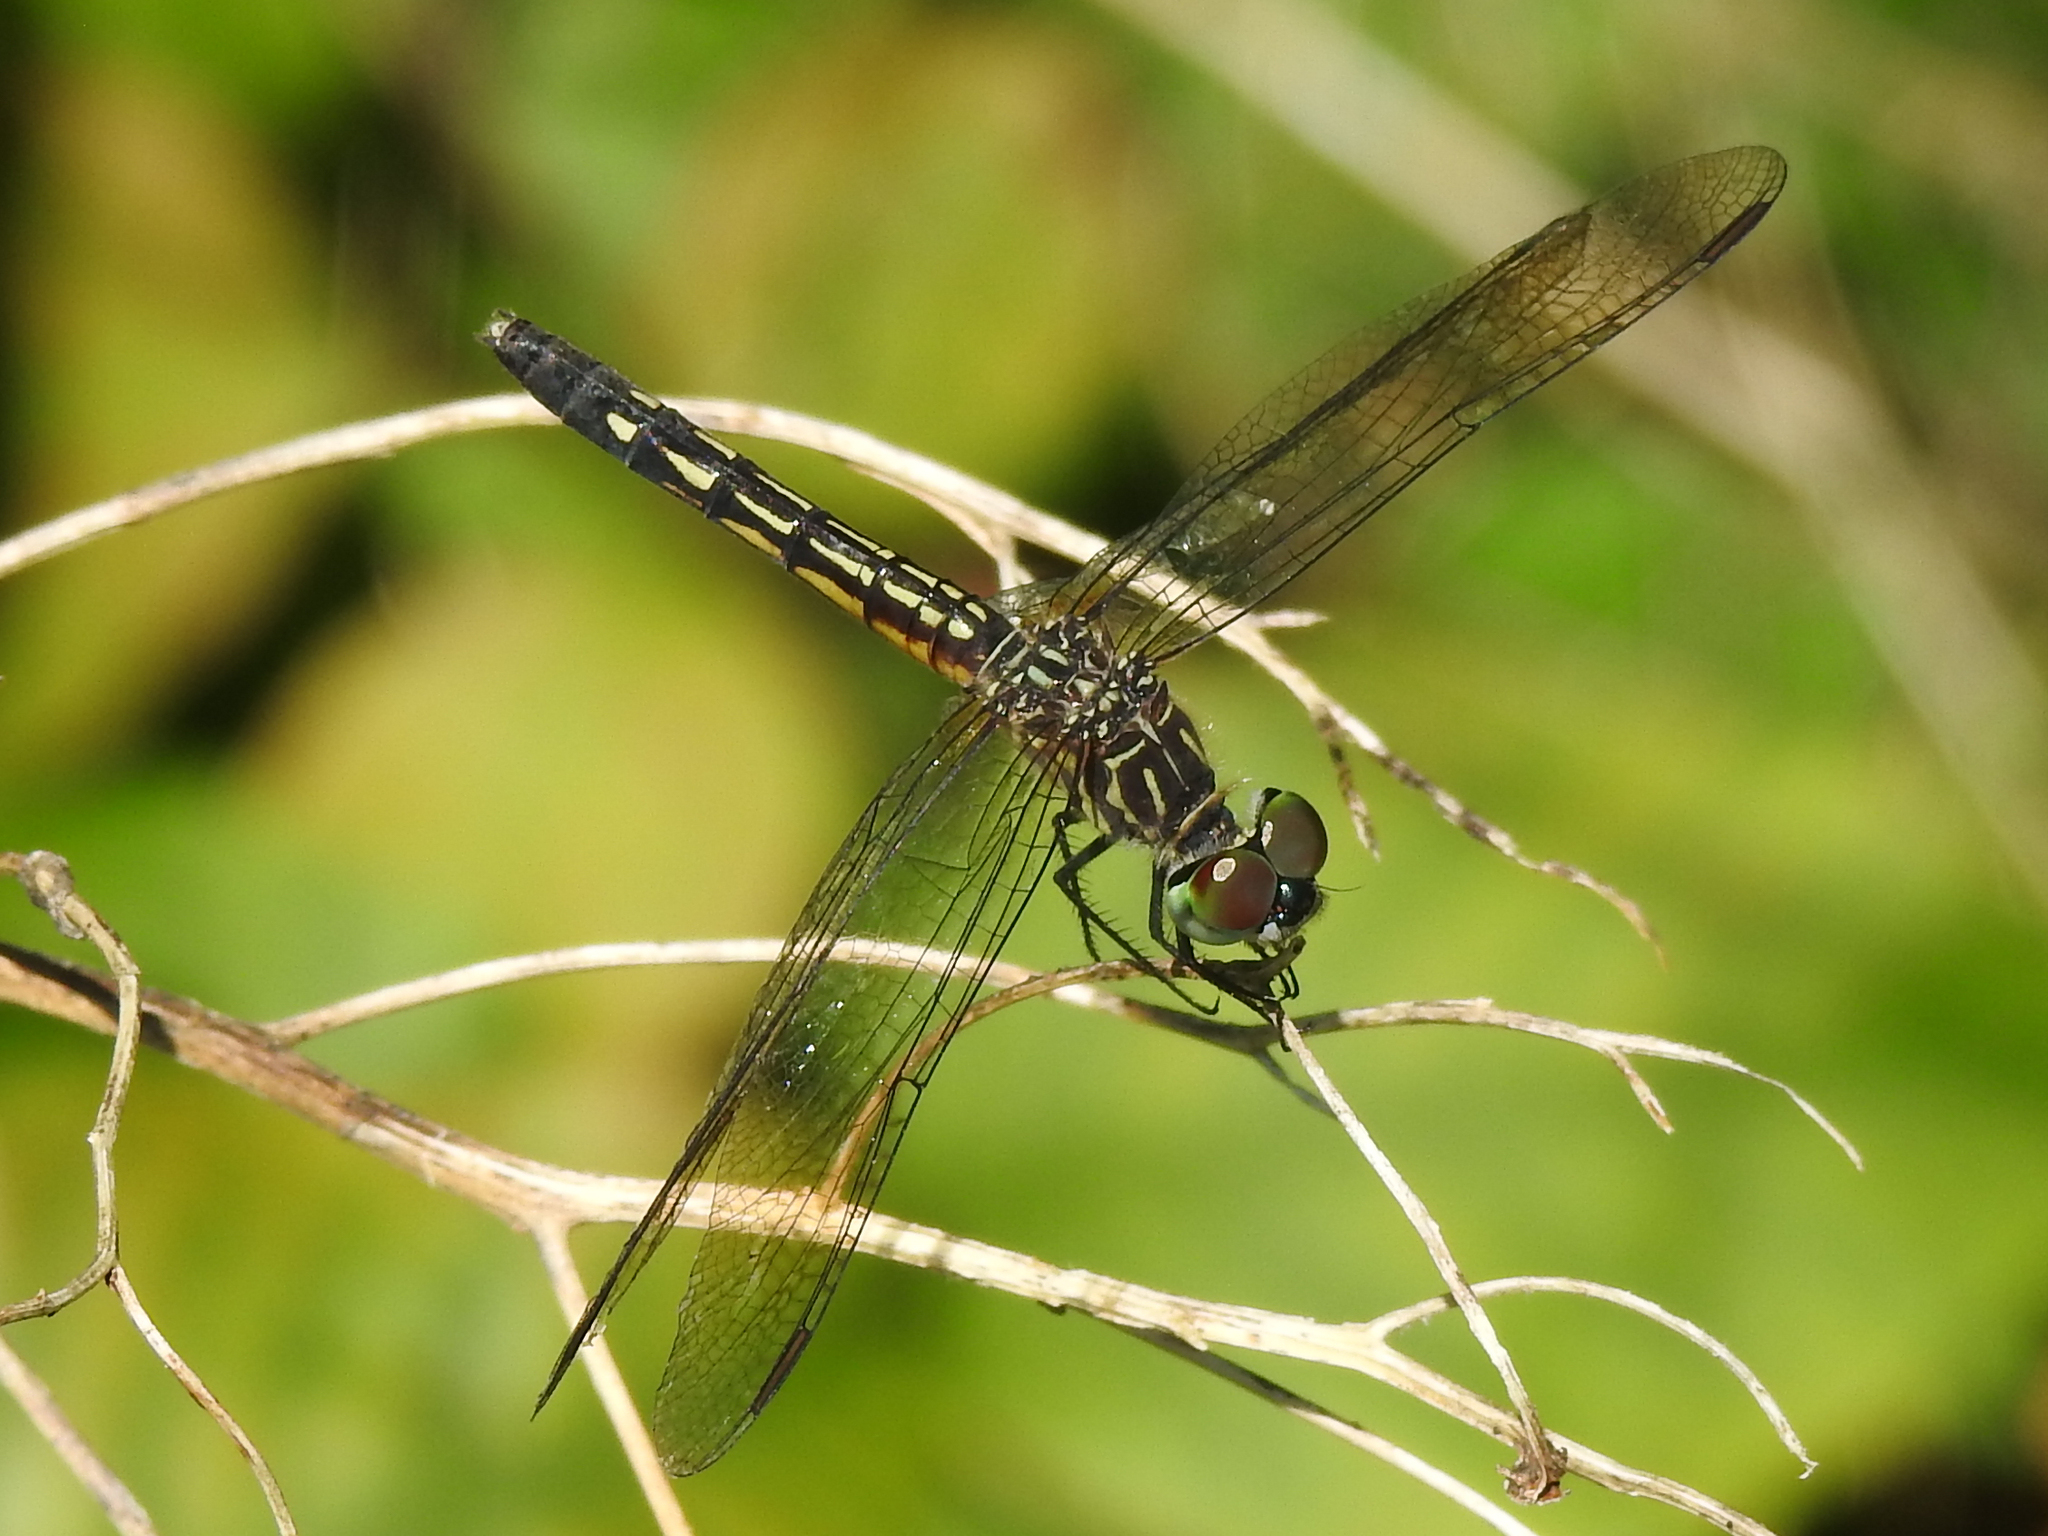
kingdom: Animalia
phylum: Arthropoda
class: Insecta
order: Odonata
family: Libellulidae
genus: Pachydiplax
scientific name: Pachydiplax longipennis
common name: Blue dasher
